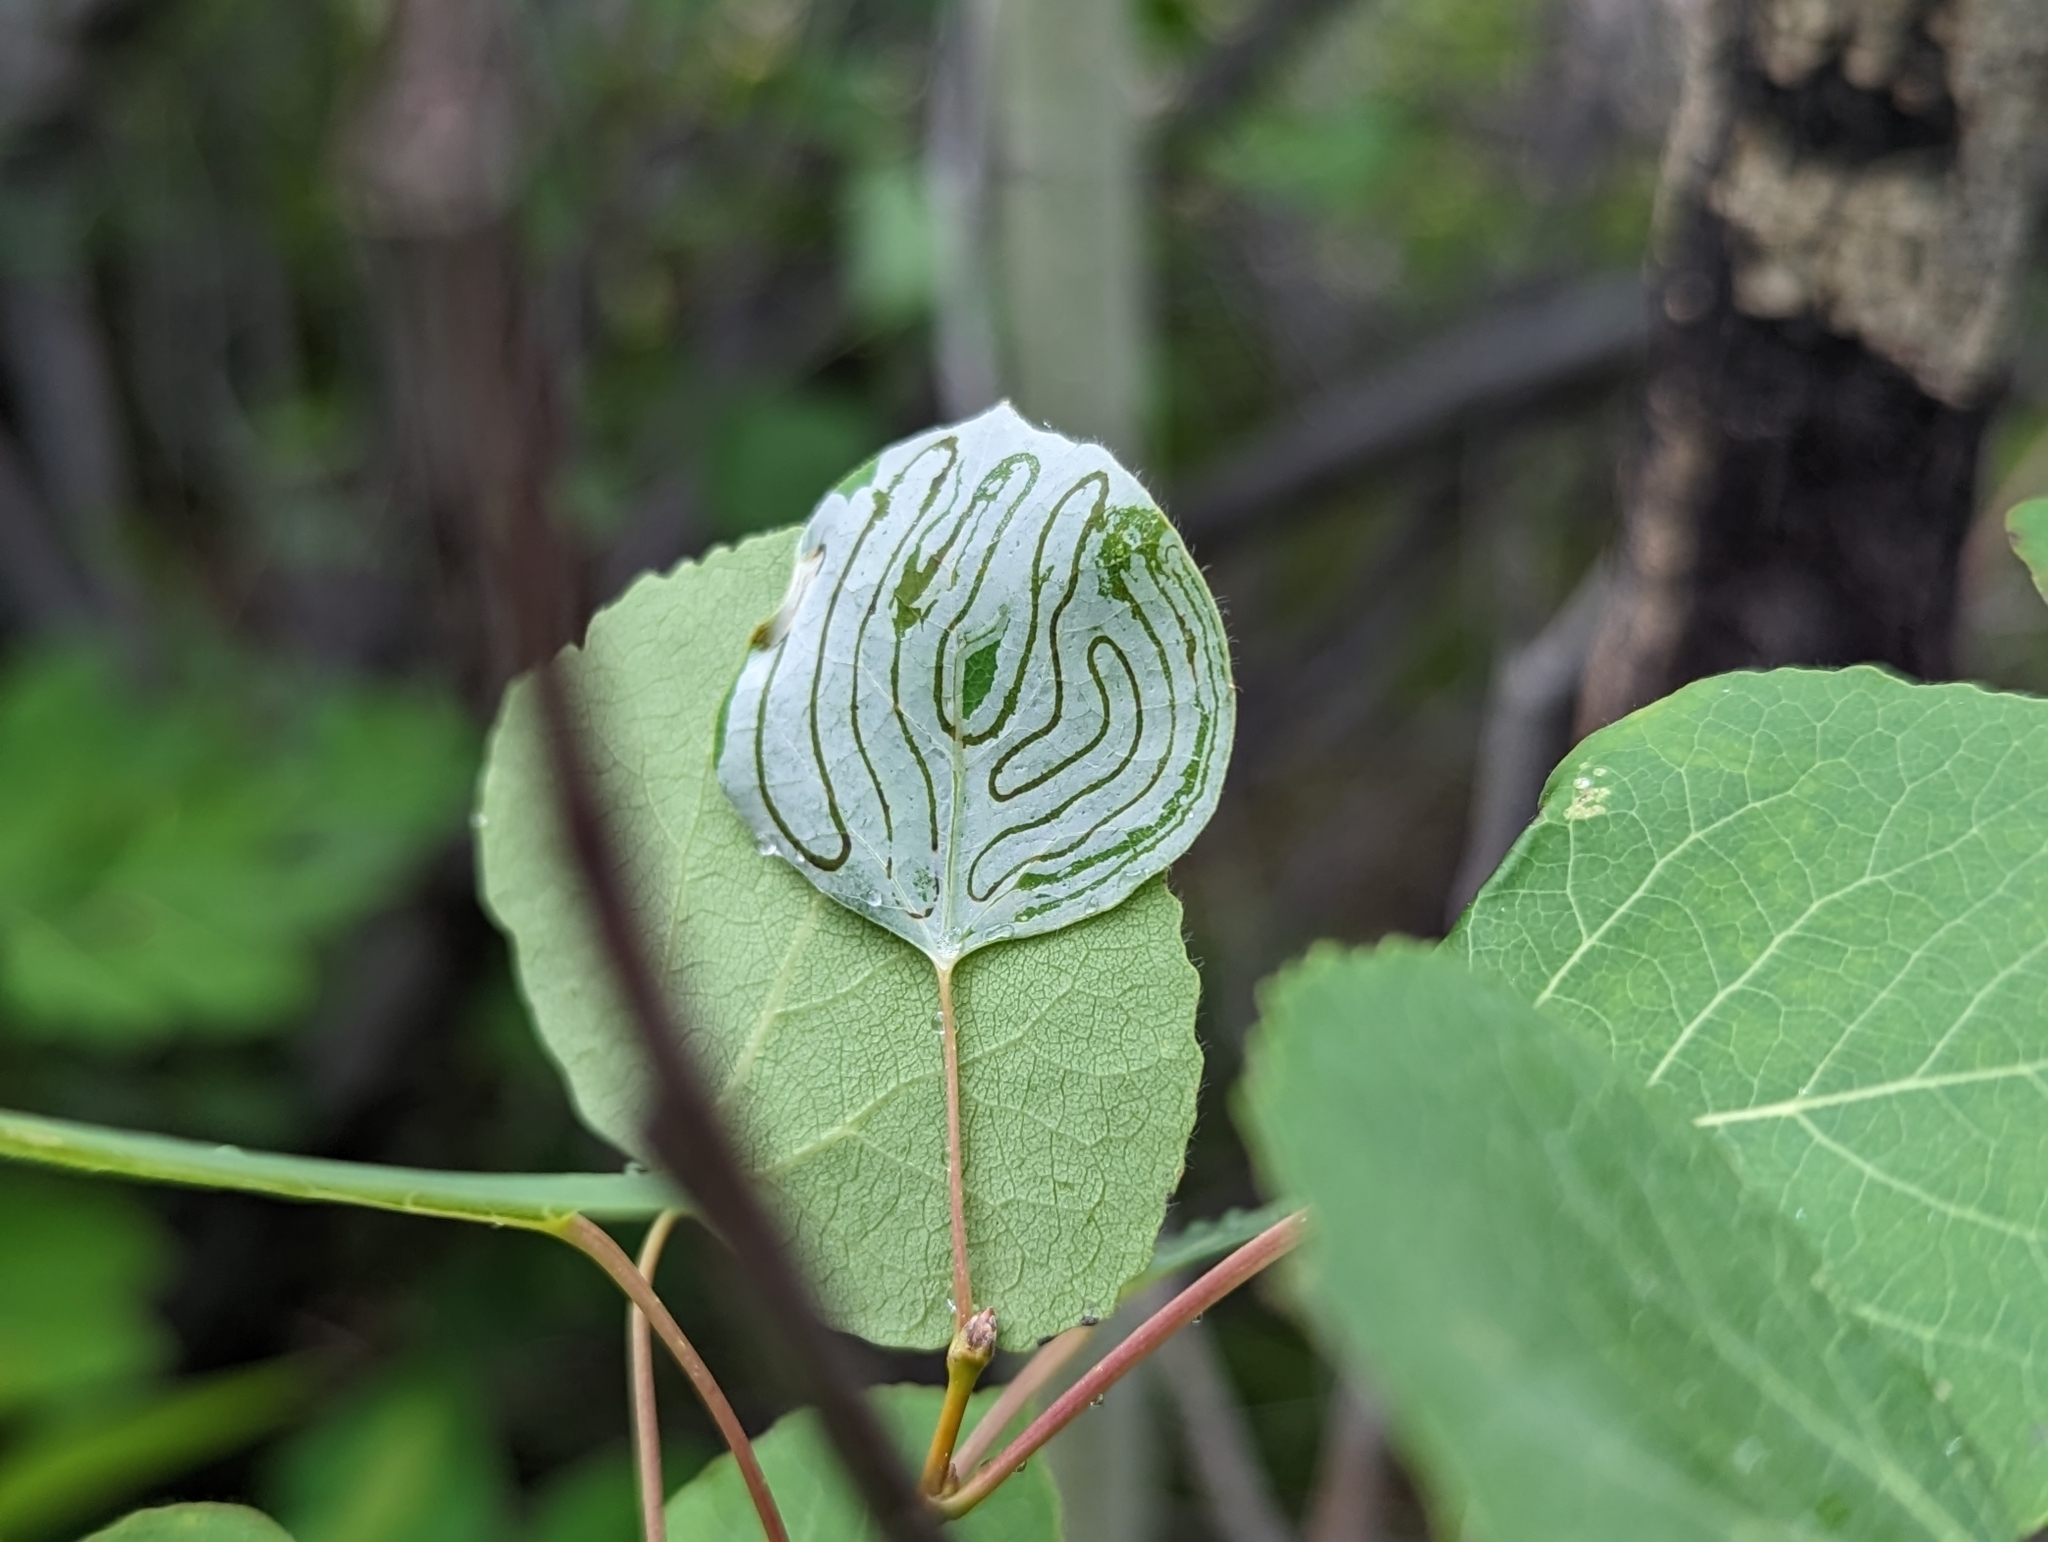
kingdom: Animalia
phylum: Arthropoda
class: Insecta
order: Lepidoptera
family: Gracillariidae
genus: Phyllocnistis
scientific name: Phyllocnistis populiella
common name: Aspen serpentine leafminer moth
